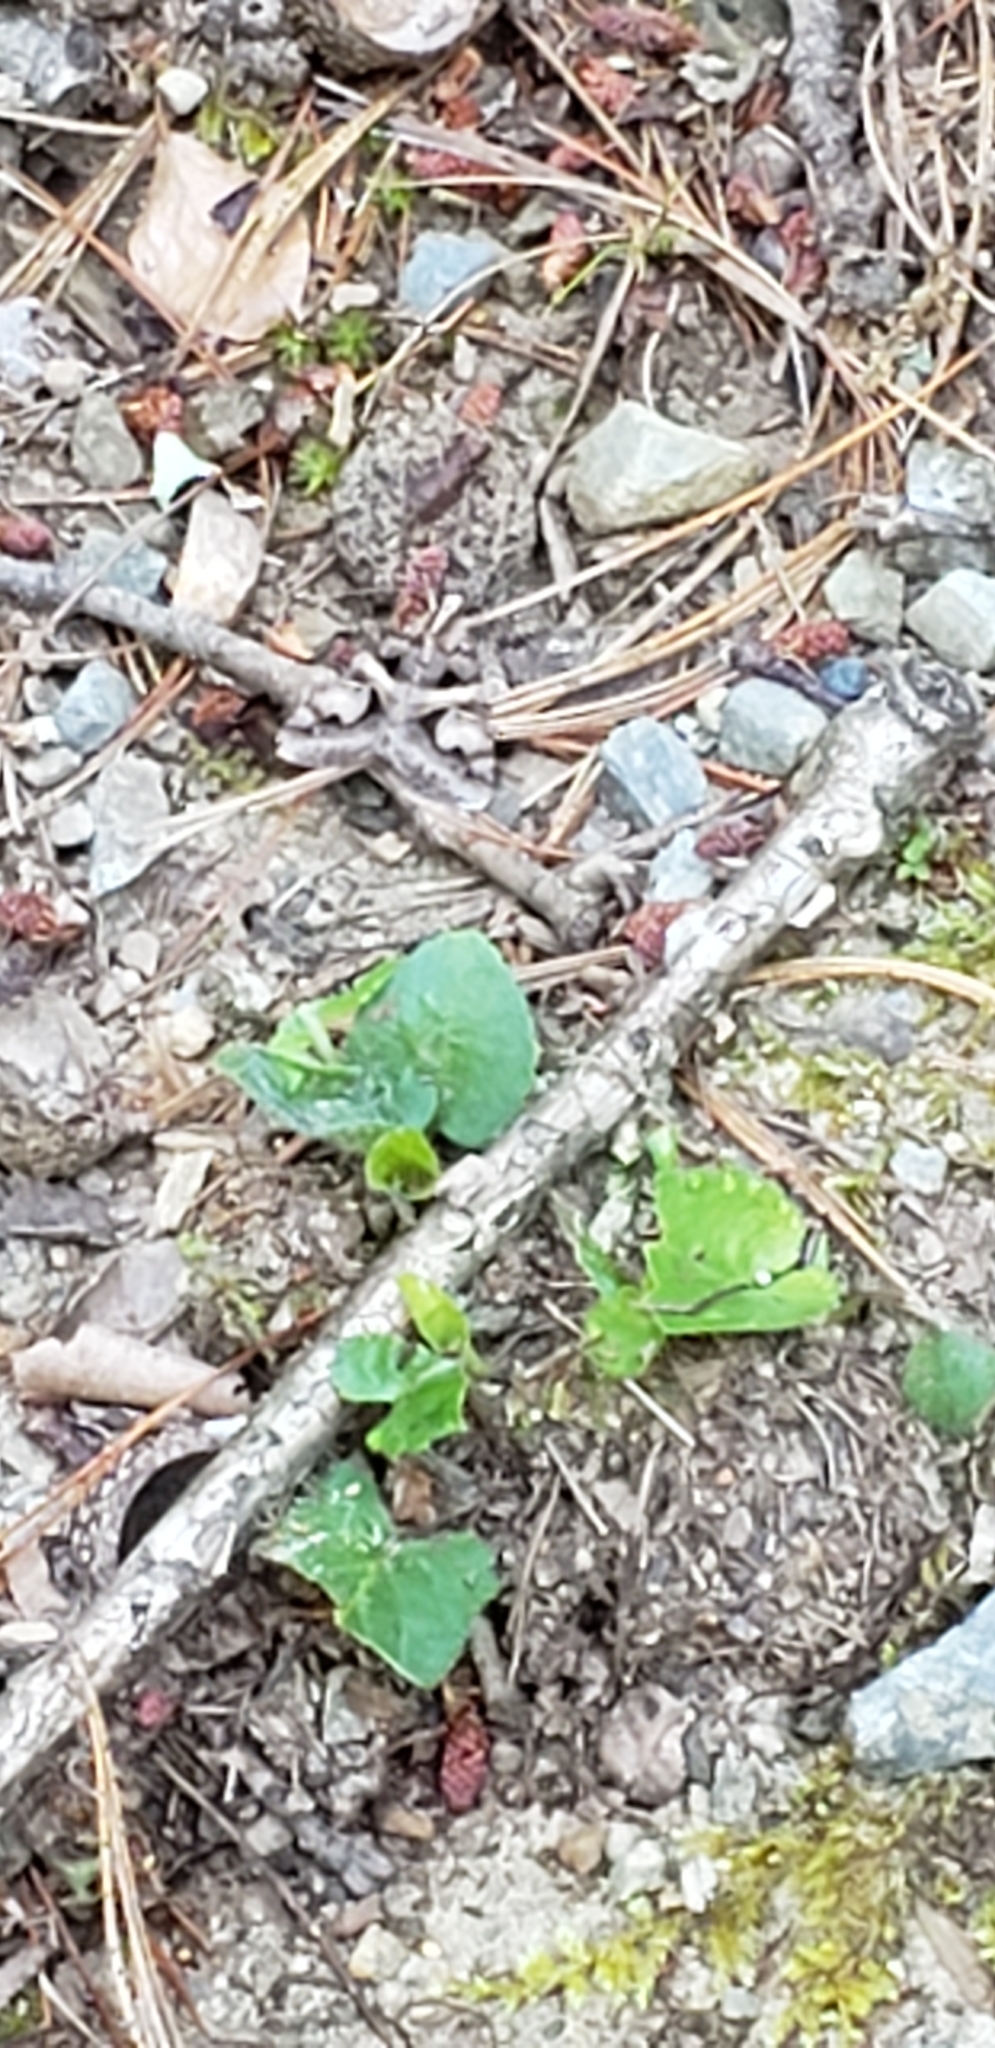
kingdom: Animalia
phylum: Arthropoda
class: Insecta
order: Lepidoptera
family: Erebidae
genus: Drasteria
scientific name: Drasteria grandirena
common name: Figure-seven moth
